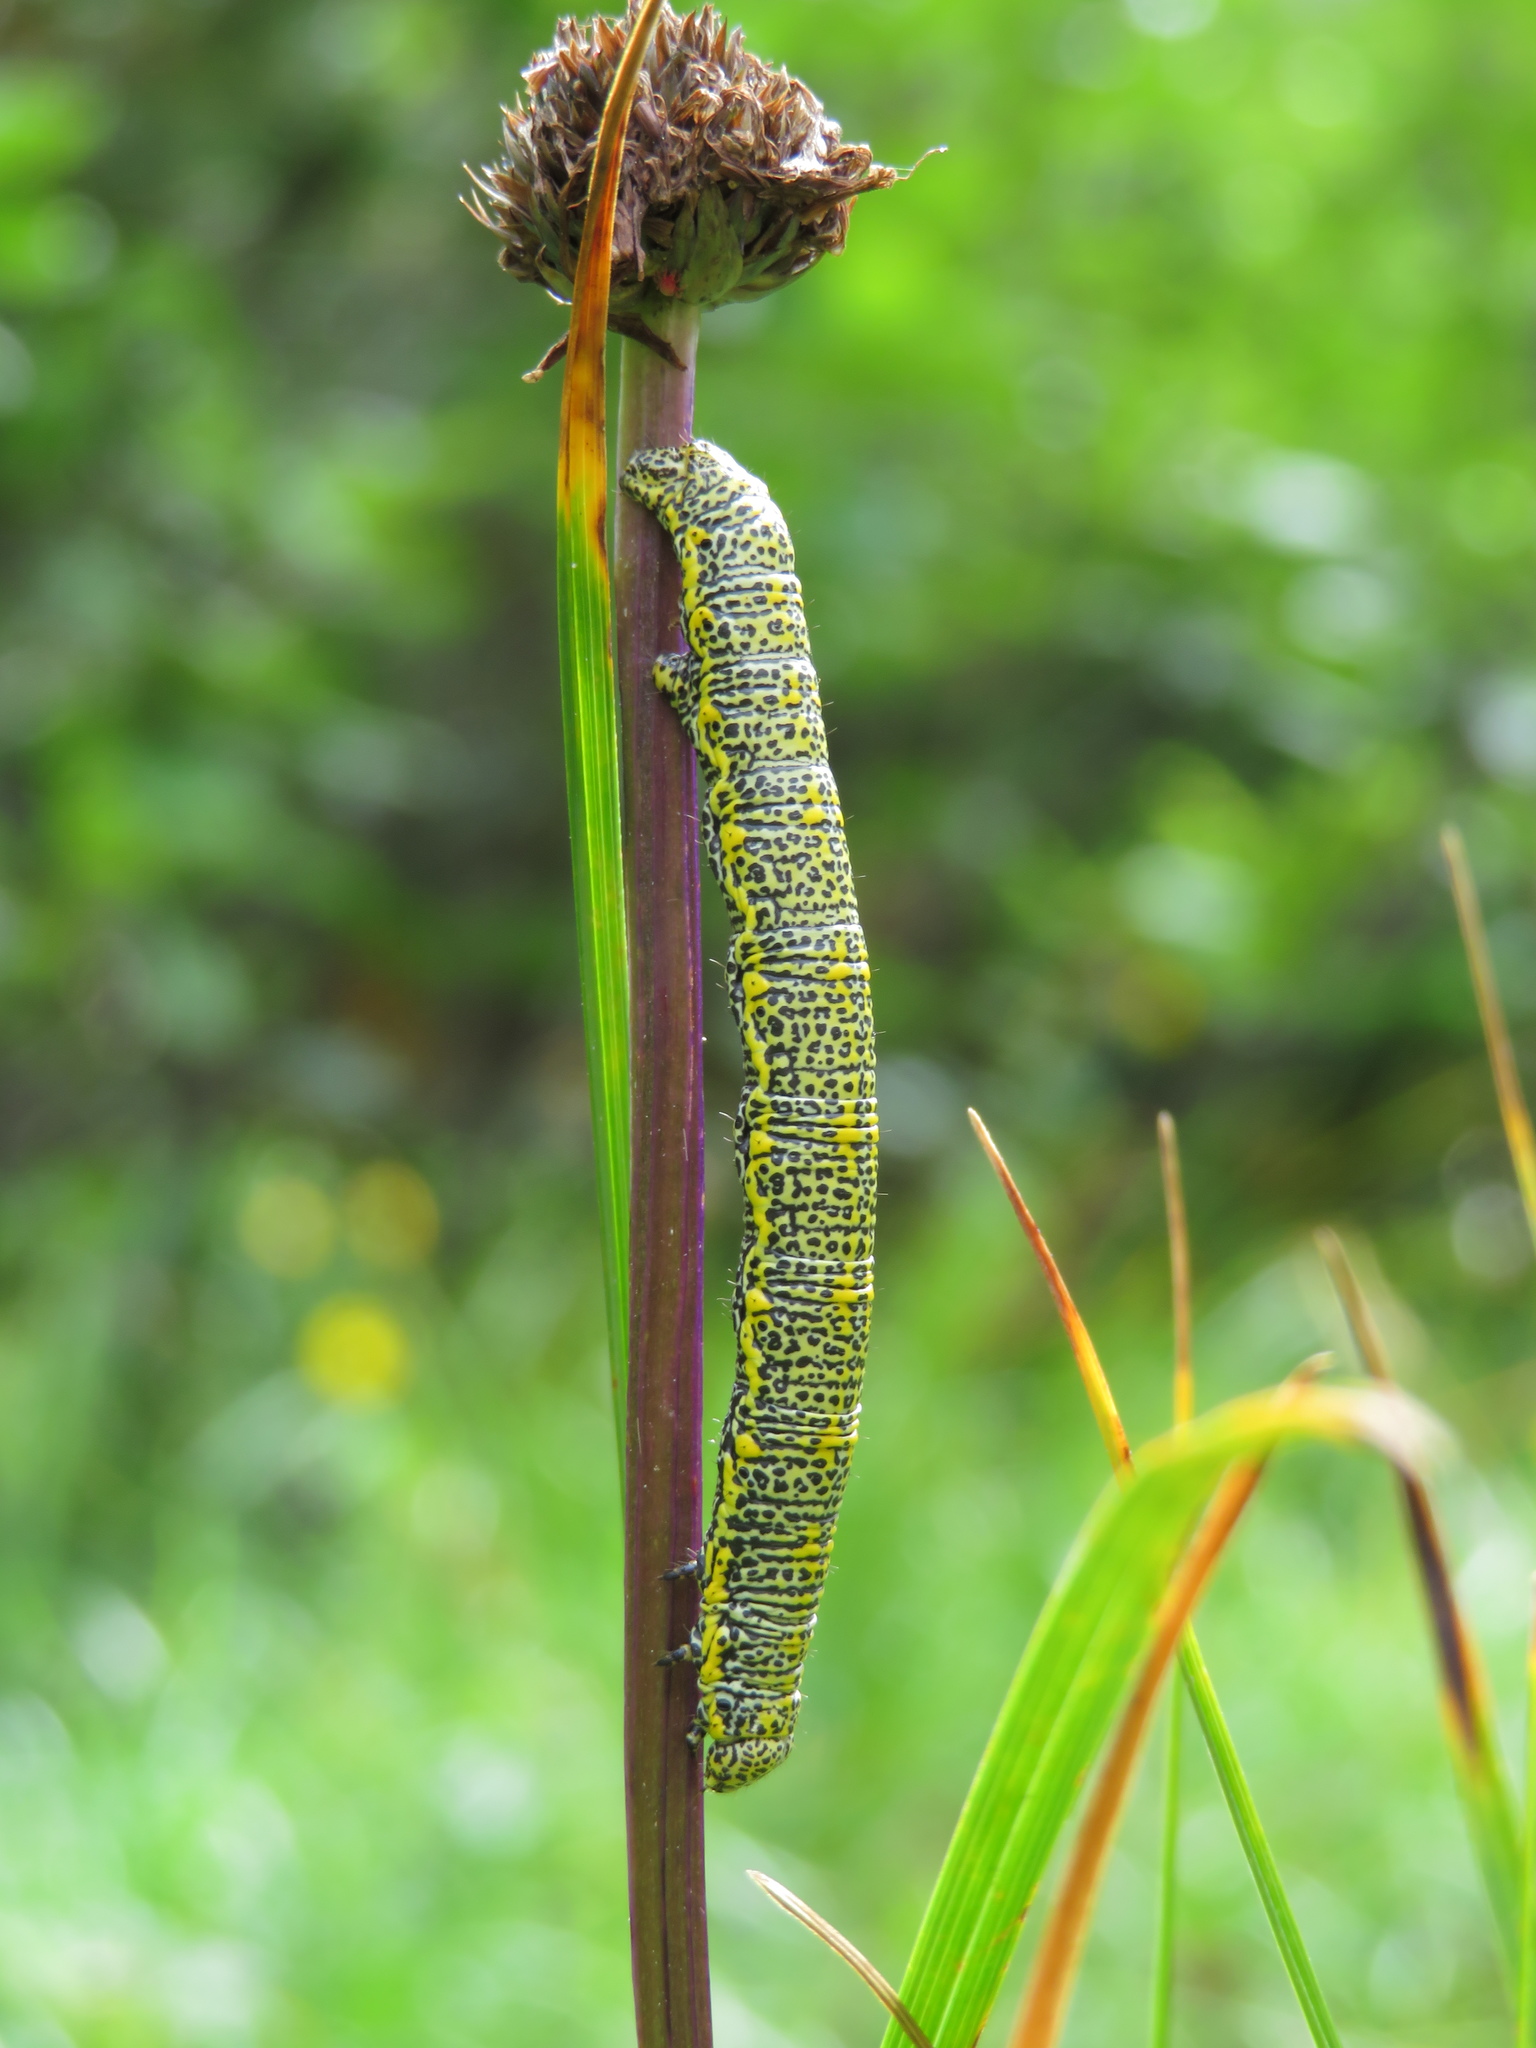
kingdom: Animalia
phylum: Arthropoda
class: Insecta
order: Lepidoptera
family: Geometridae
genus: Lycia
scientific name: Lycia alpina
